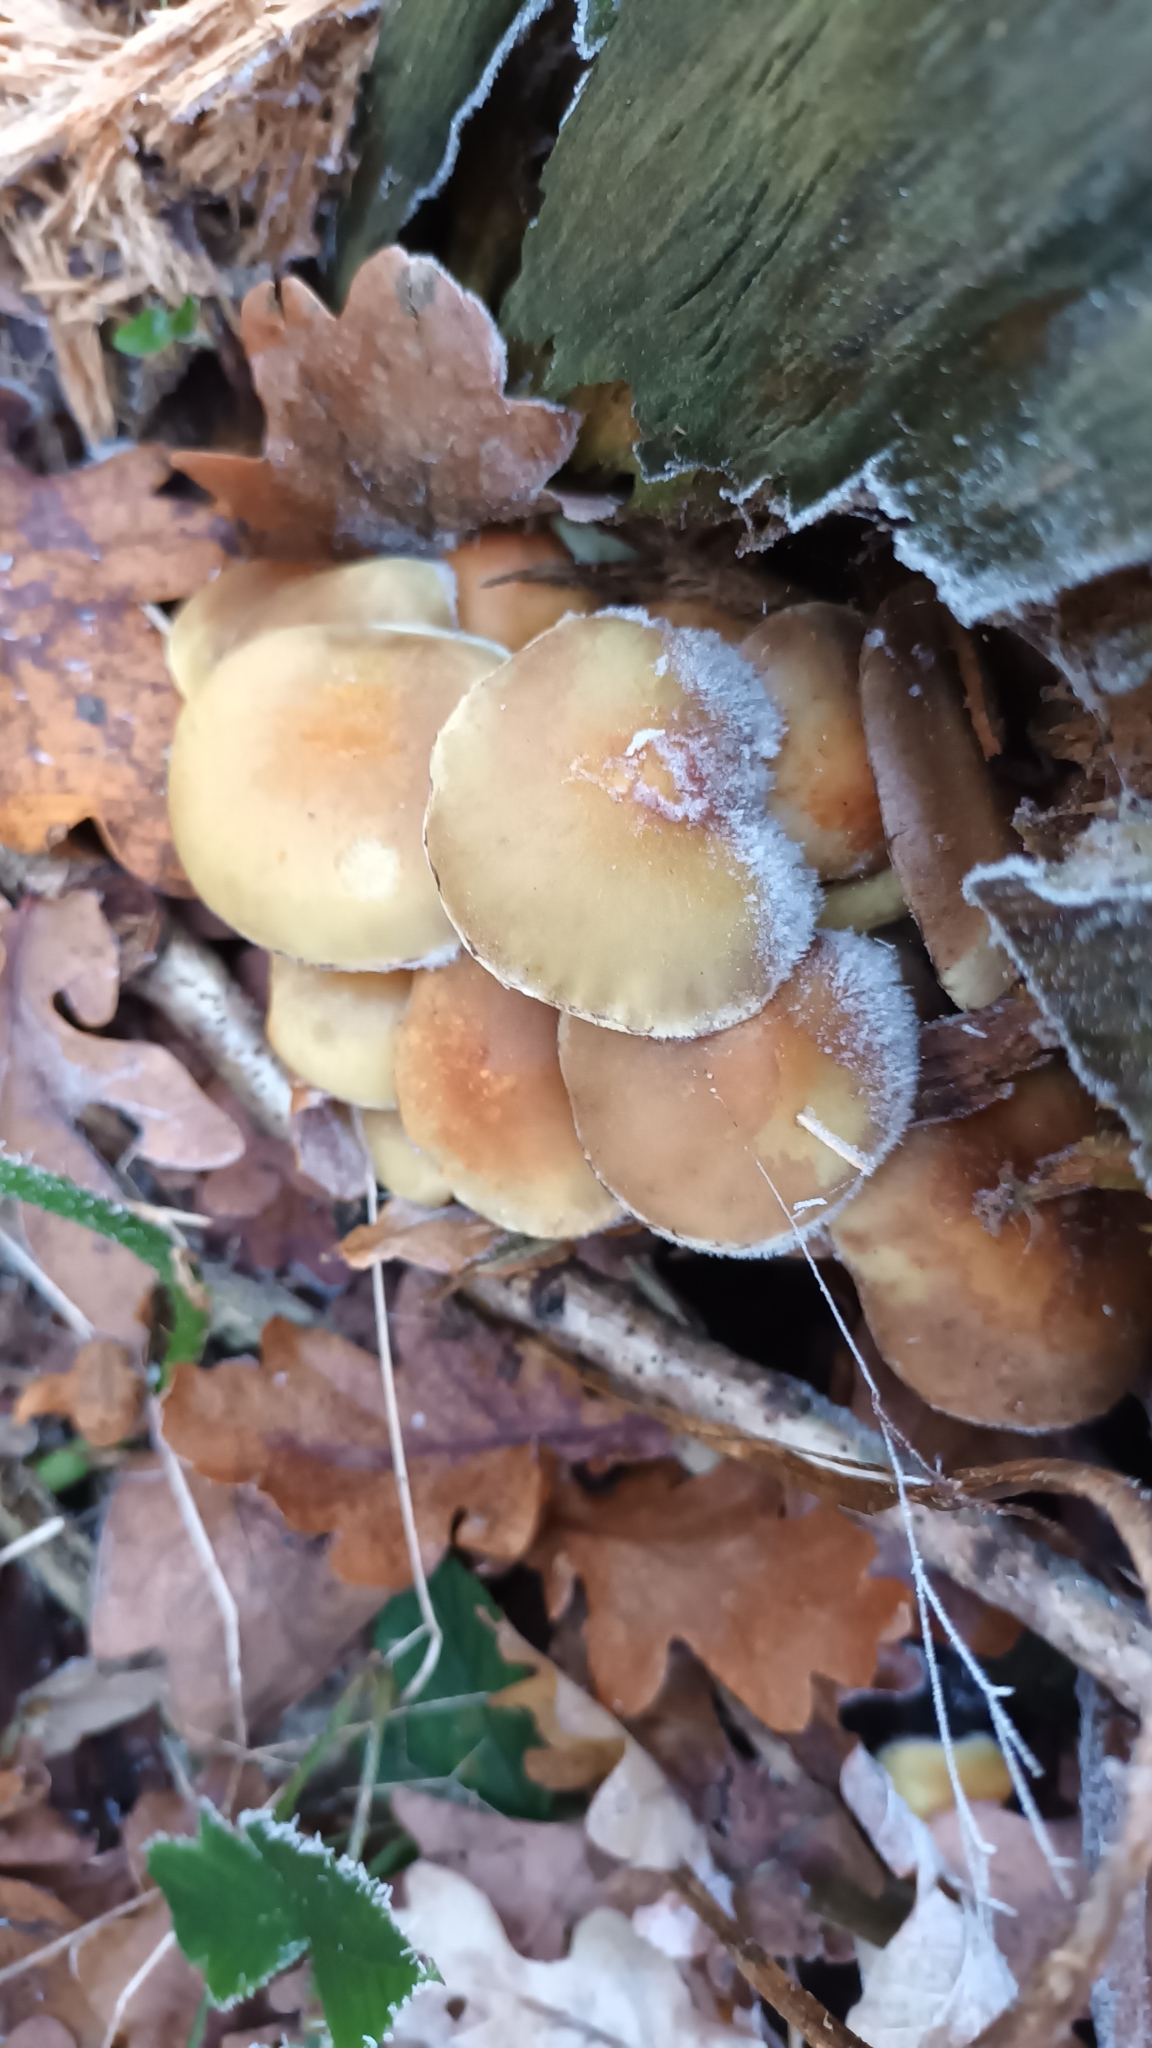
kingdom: Fungi
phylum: Basidiomycota
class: Agaricomycetes
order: Agaricales
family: Strophariaceae
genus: Hypholoma
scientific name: Hypholoma fasciculare
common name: Sulphur tuft
